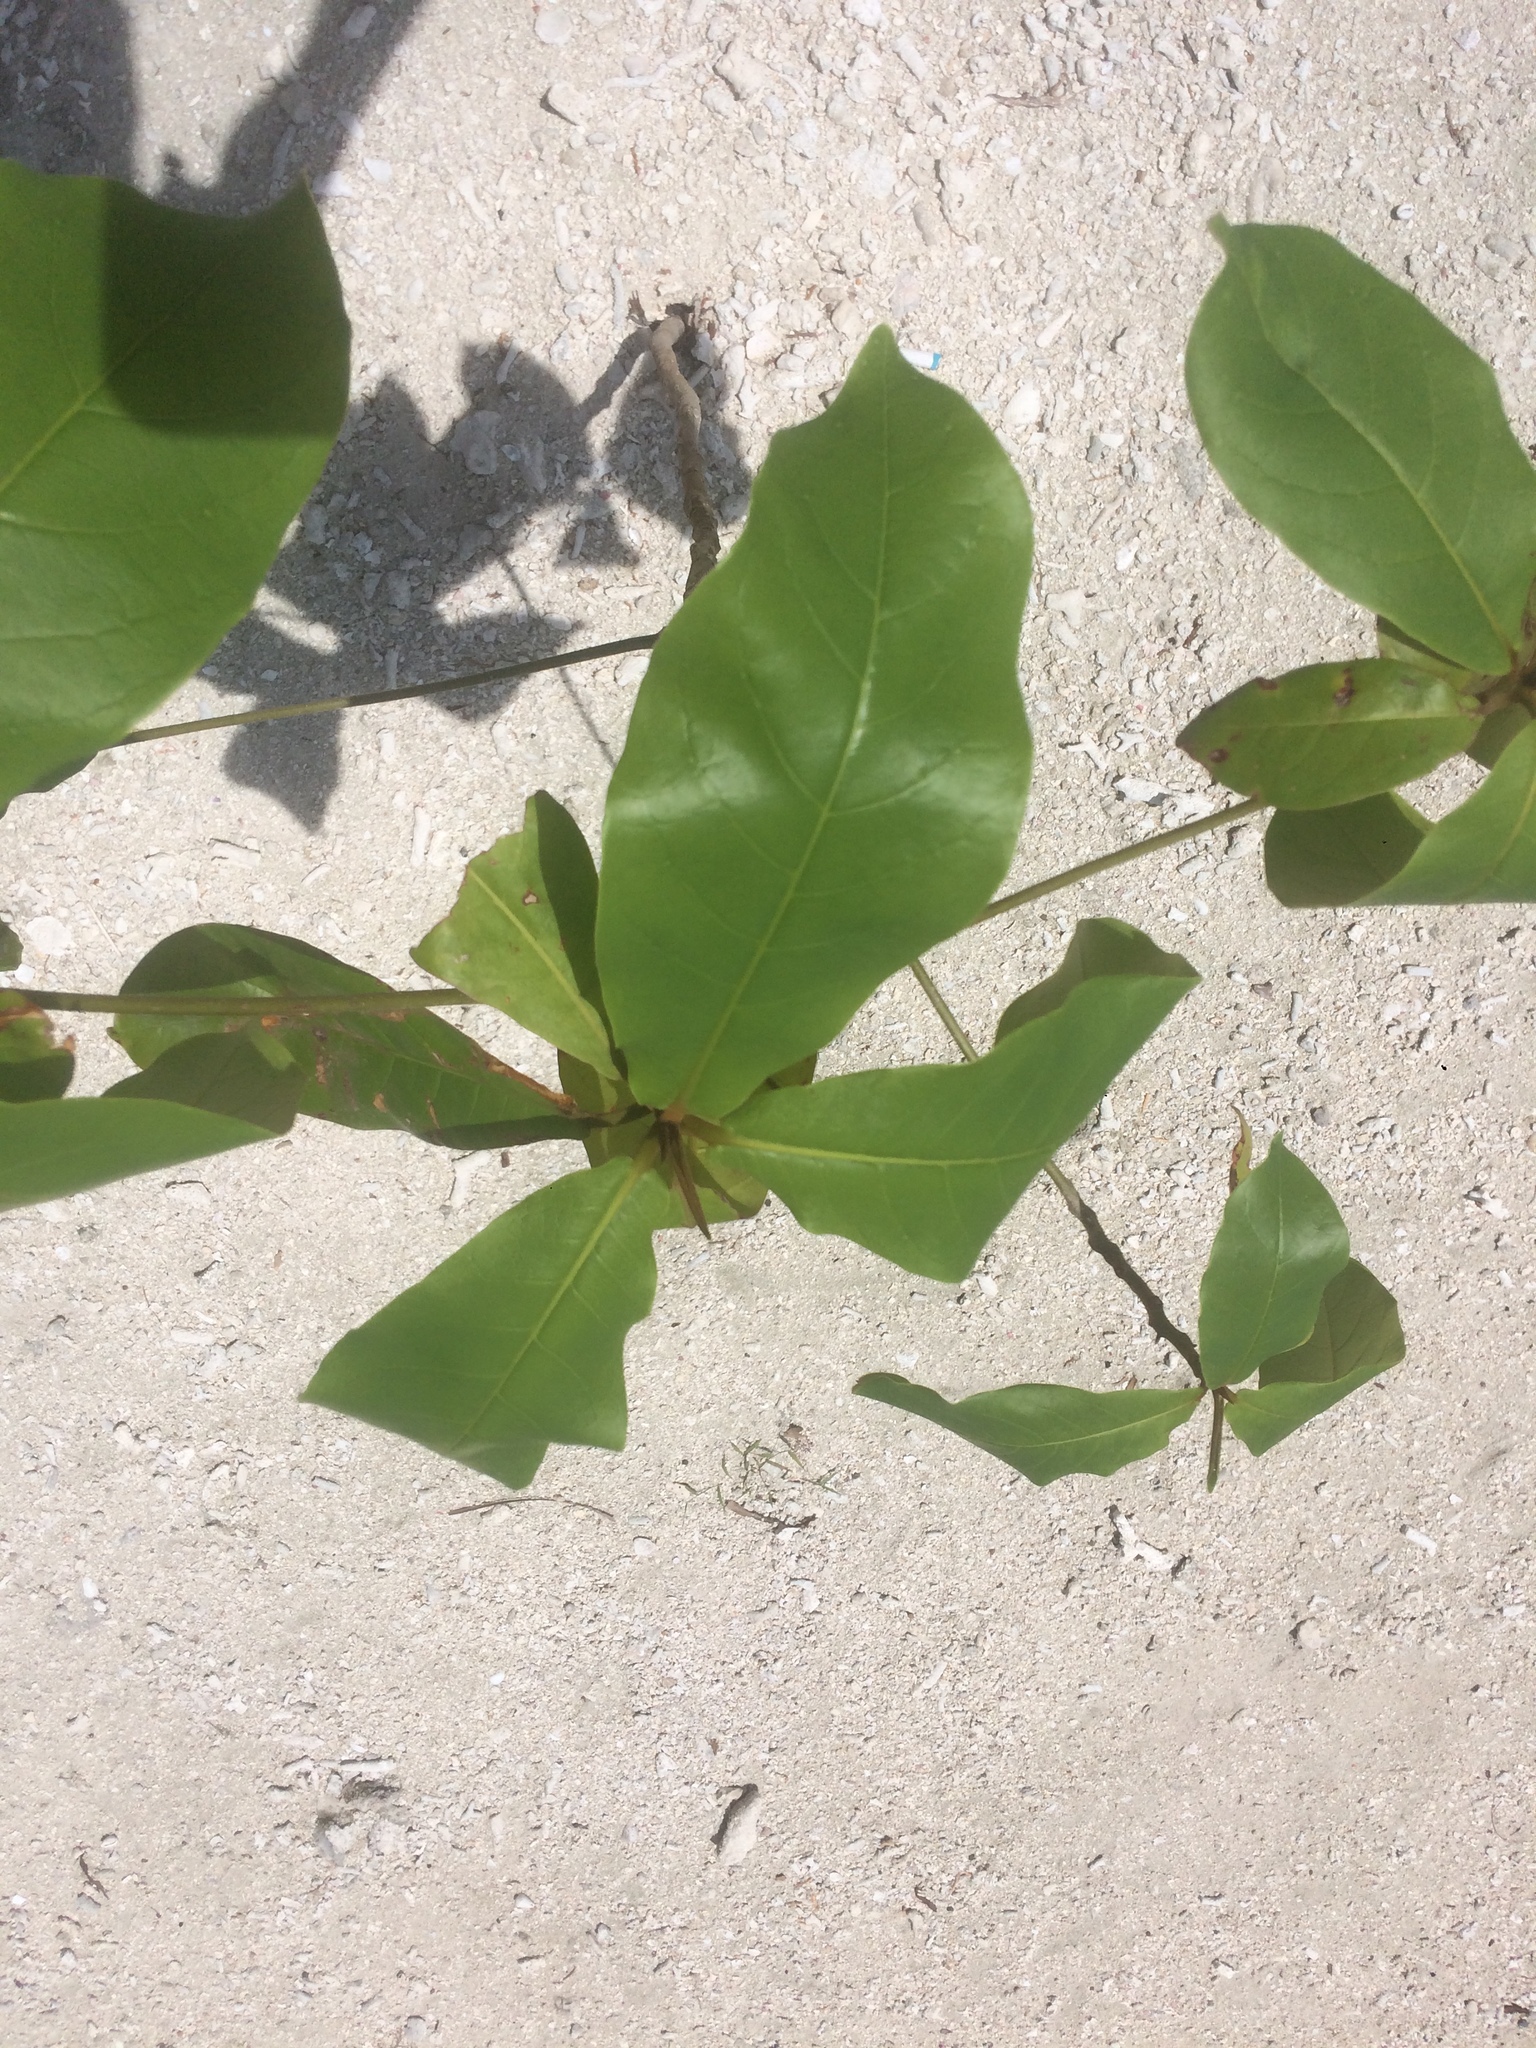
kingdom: Plantae
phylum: Tracheophyta
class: Magnoliopsida
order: Myrtales
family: Combretaceae
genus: Terminalia
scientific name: Terminalia catappa
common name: Tropical almond
